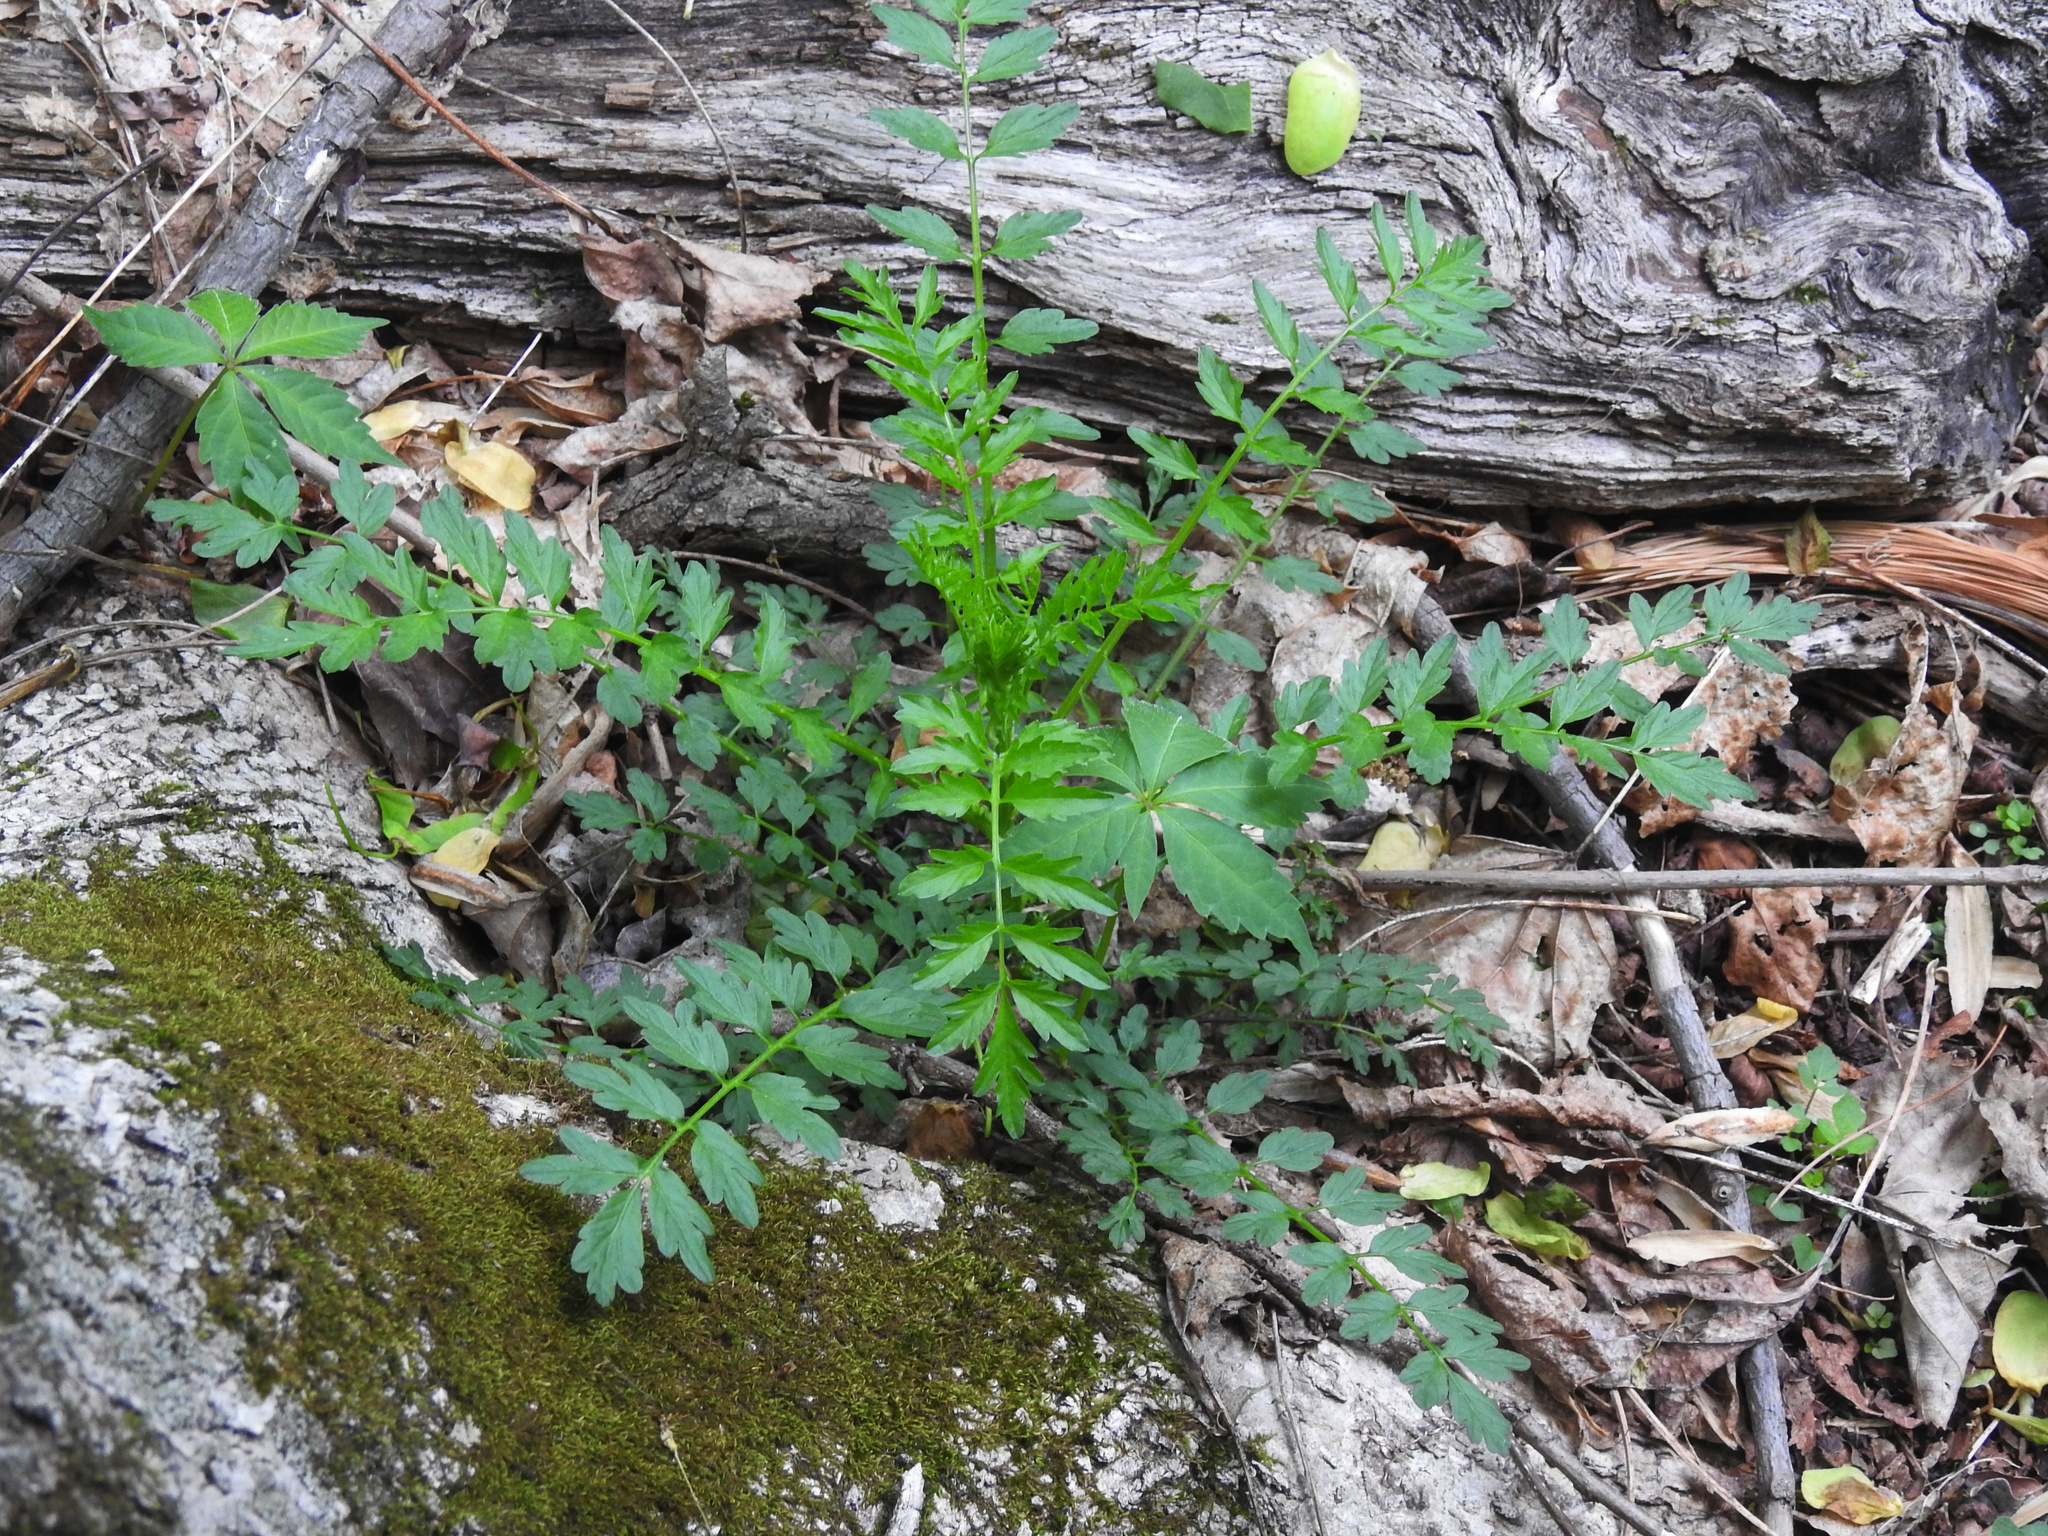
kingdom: Plantae
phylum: Tracheophyta
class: Magnoliopsida
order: Brassicales
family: Brassicaceae
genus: Cardamine
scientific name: Cardamine impatiens
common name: Narrow-leaved bitter-cress
